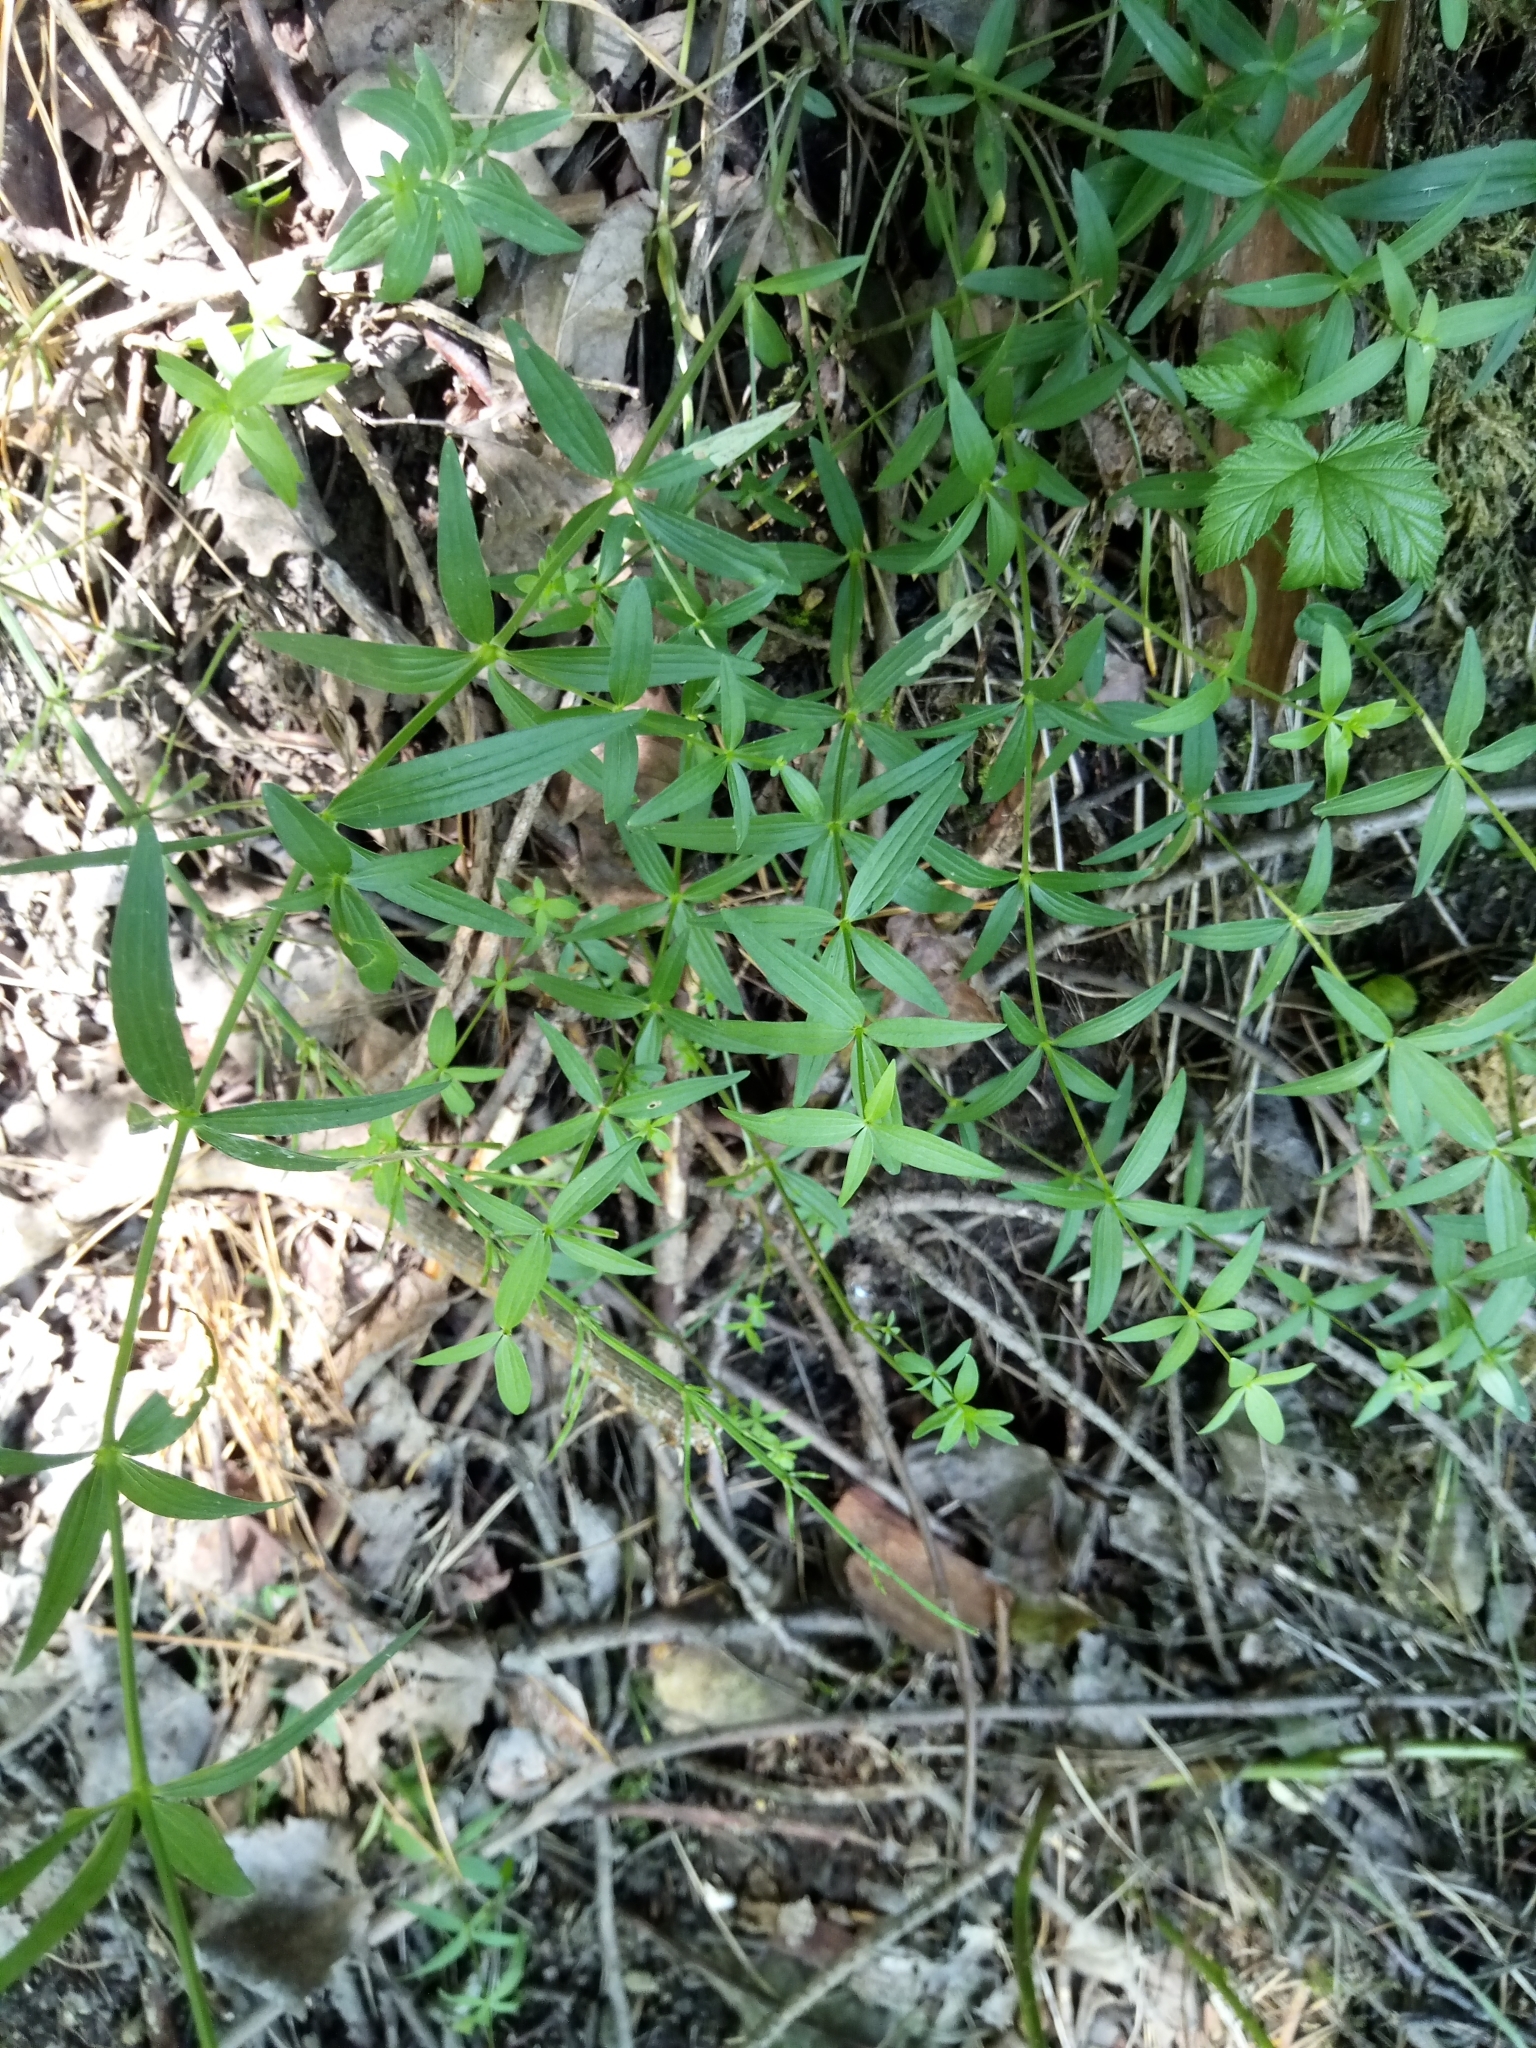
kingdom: Plantae
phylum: Tracheophyta
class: Magnoliopsida
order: Gentianales
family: Rubiaceae
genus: Galium
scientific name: Galium boreale
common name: Northern bedstraw
